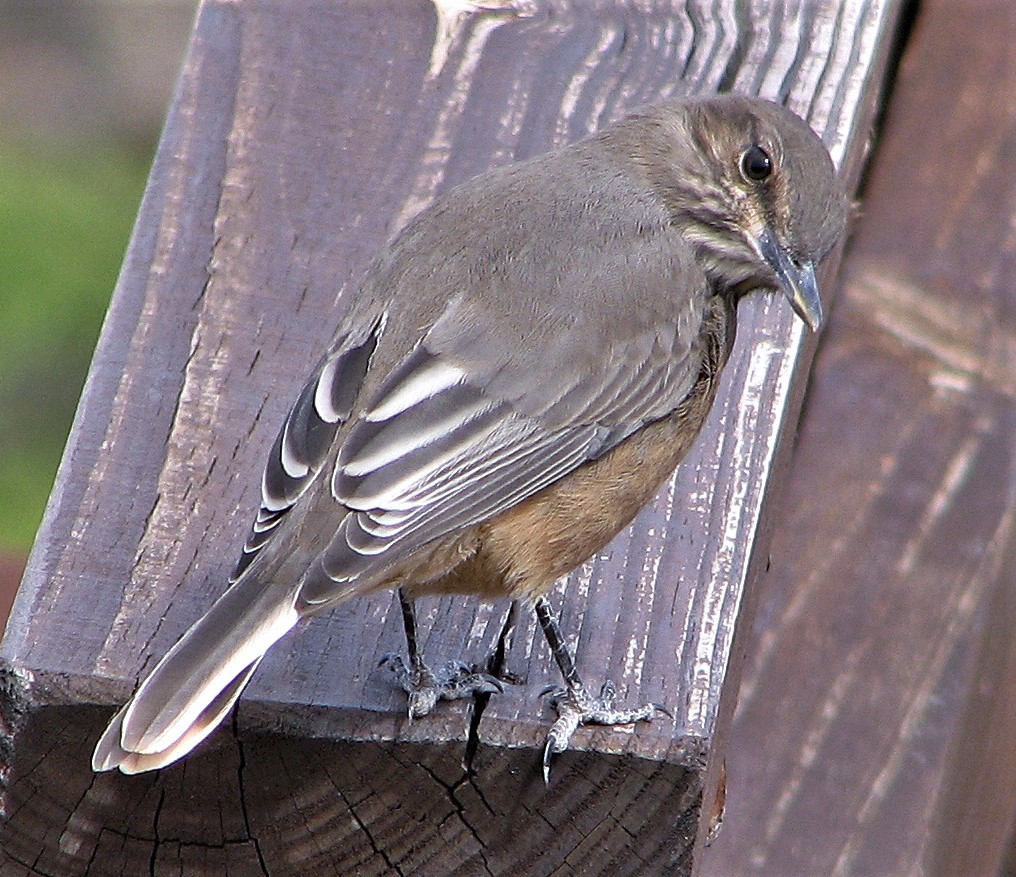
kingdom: Animalia
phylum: Chordata
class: Aves
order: Passeriformes
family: Tyrannidae
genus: Agriornis
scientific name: Agriornis montanus
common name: Black-billed shrike-tyrant
